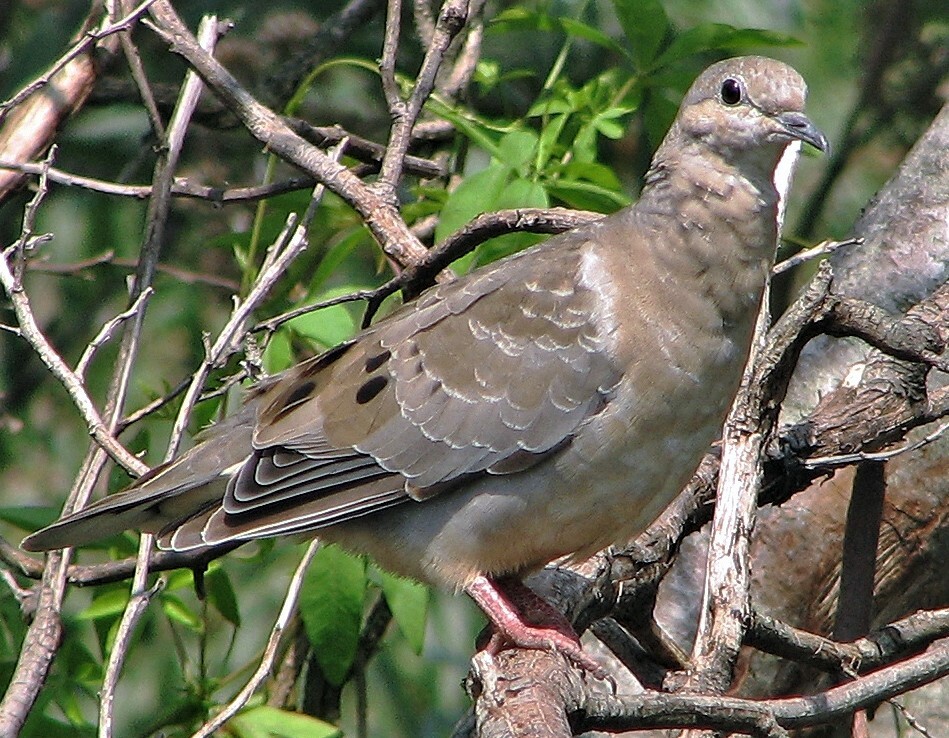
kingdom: Animalia
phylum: Chordata
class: Aves
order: Columbiformes
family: Columbidae
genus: Zenaida
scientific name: Zenaida auriculata
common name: Eared dove
